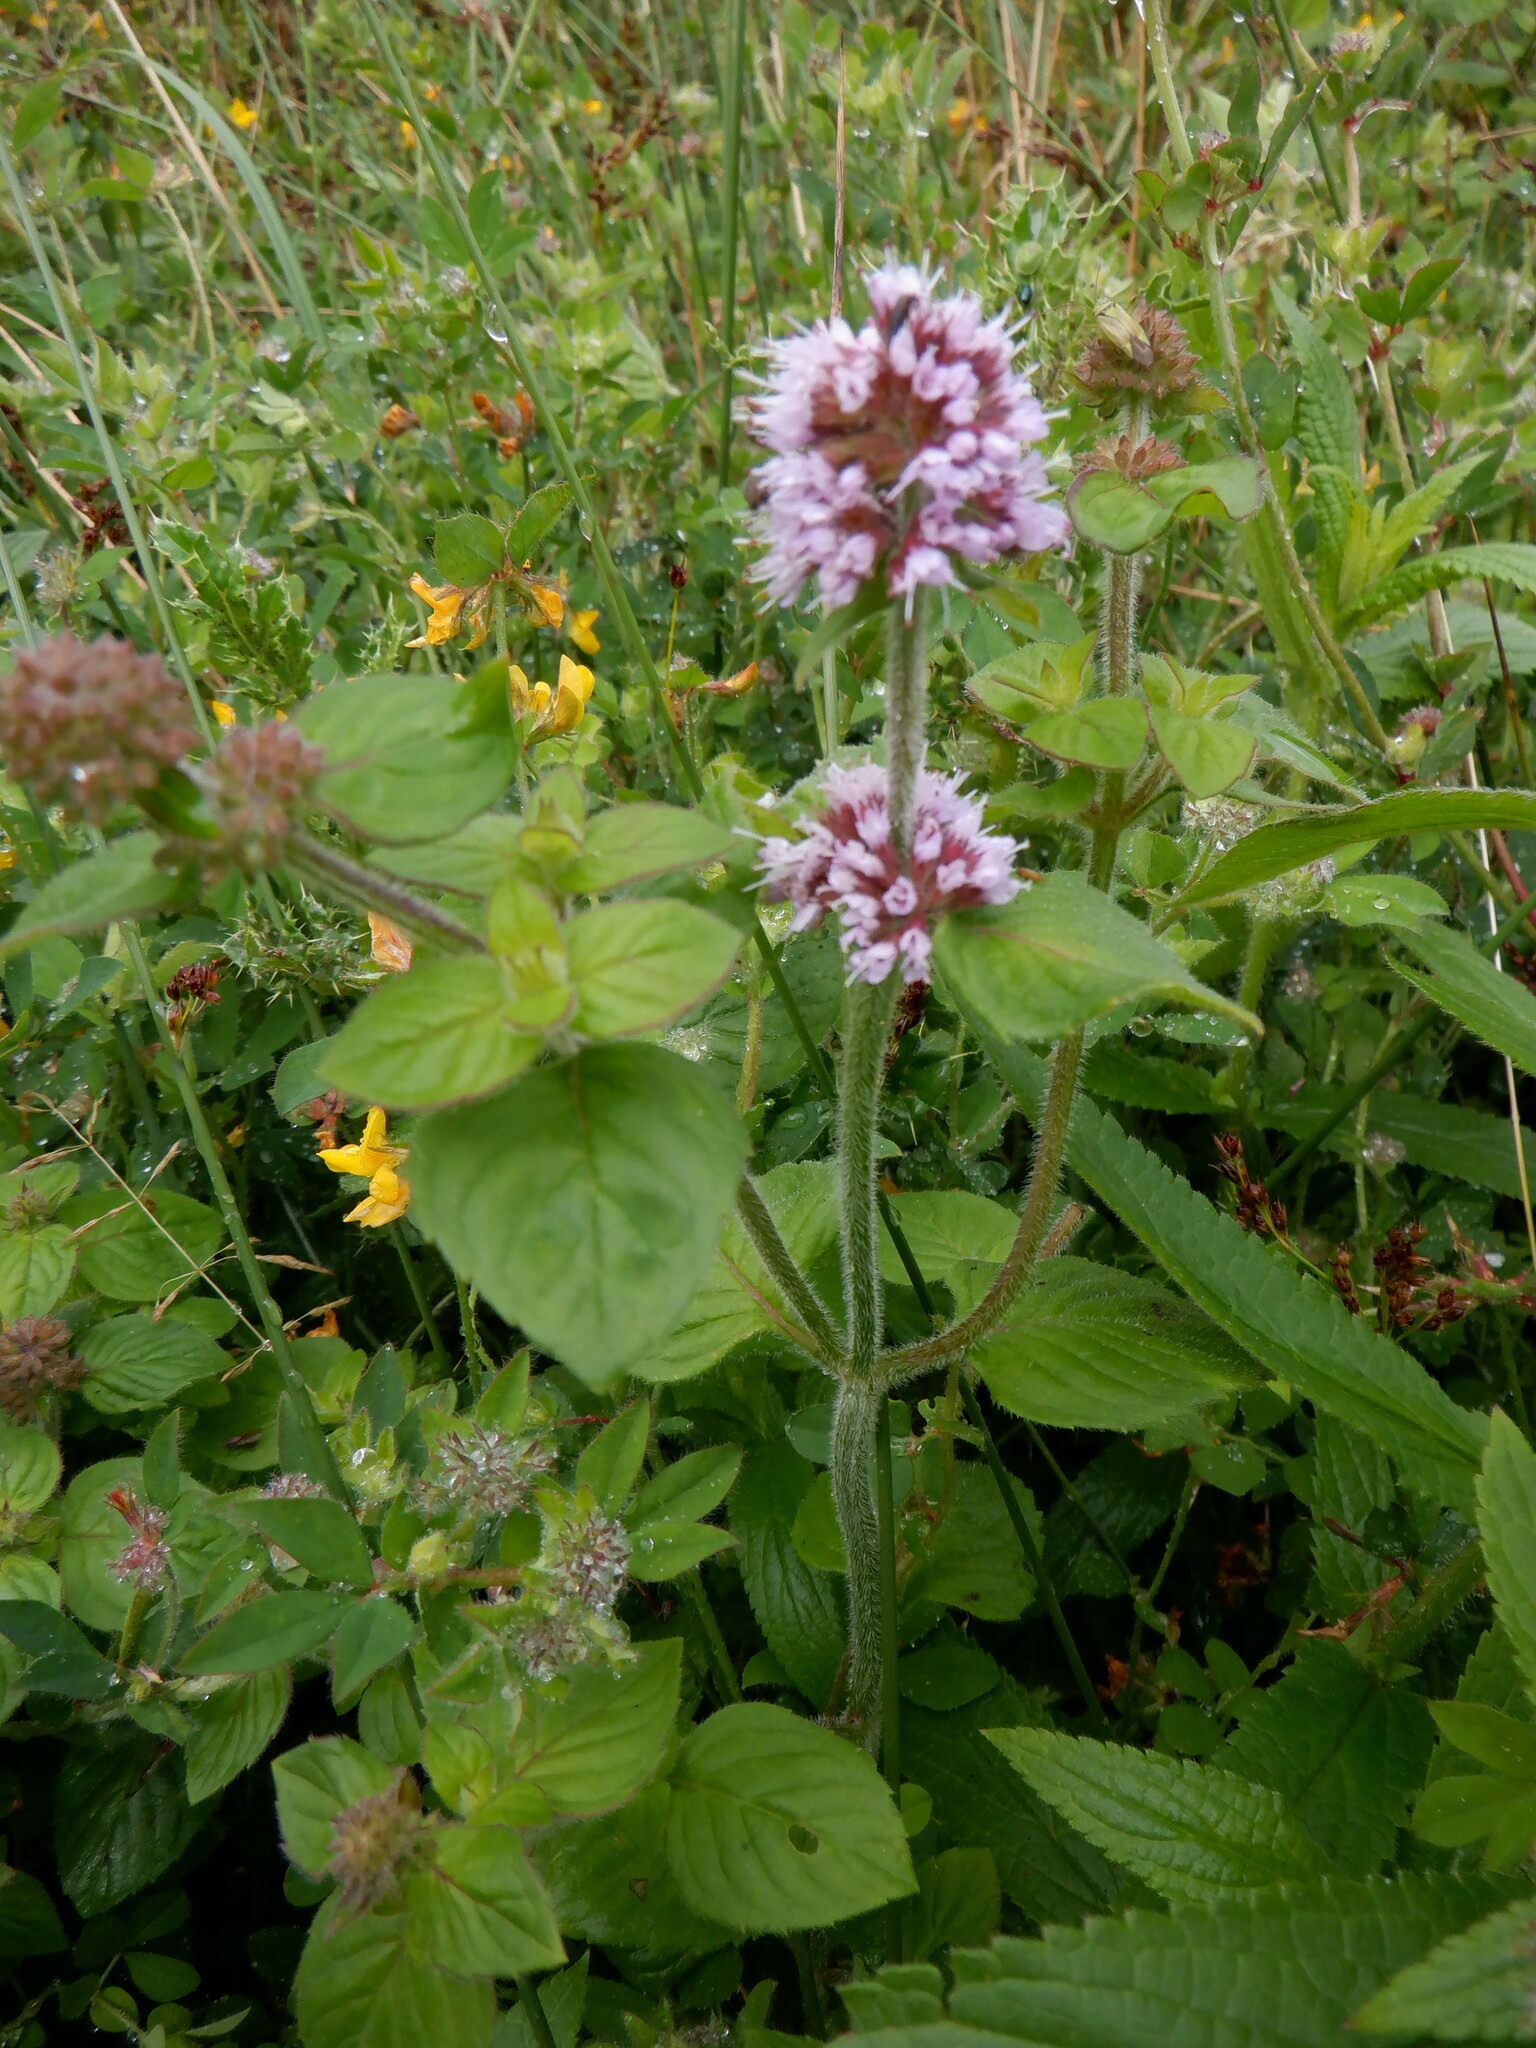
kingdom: Plantae
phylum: Tracheophyta
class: Magnoliopsida
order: Lamiales
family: Lamiaceae
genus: Mentha
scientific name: Mentha aquatica
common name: Water mint
